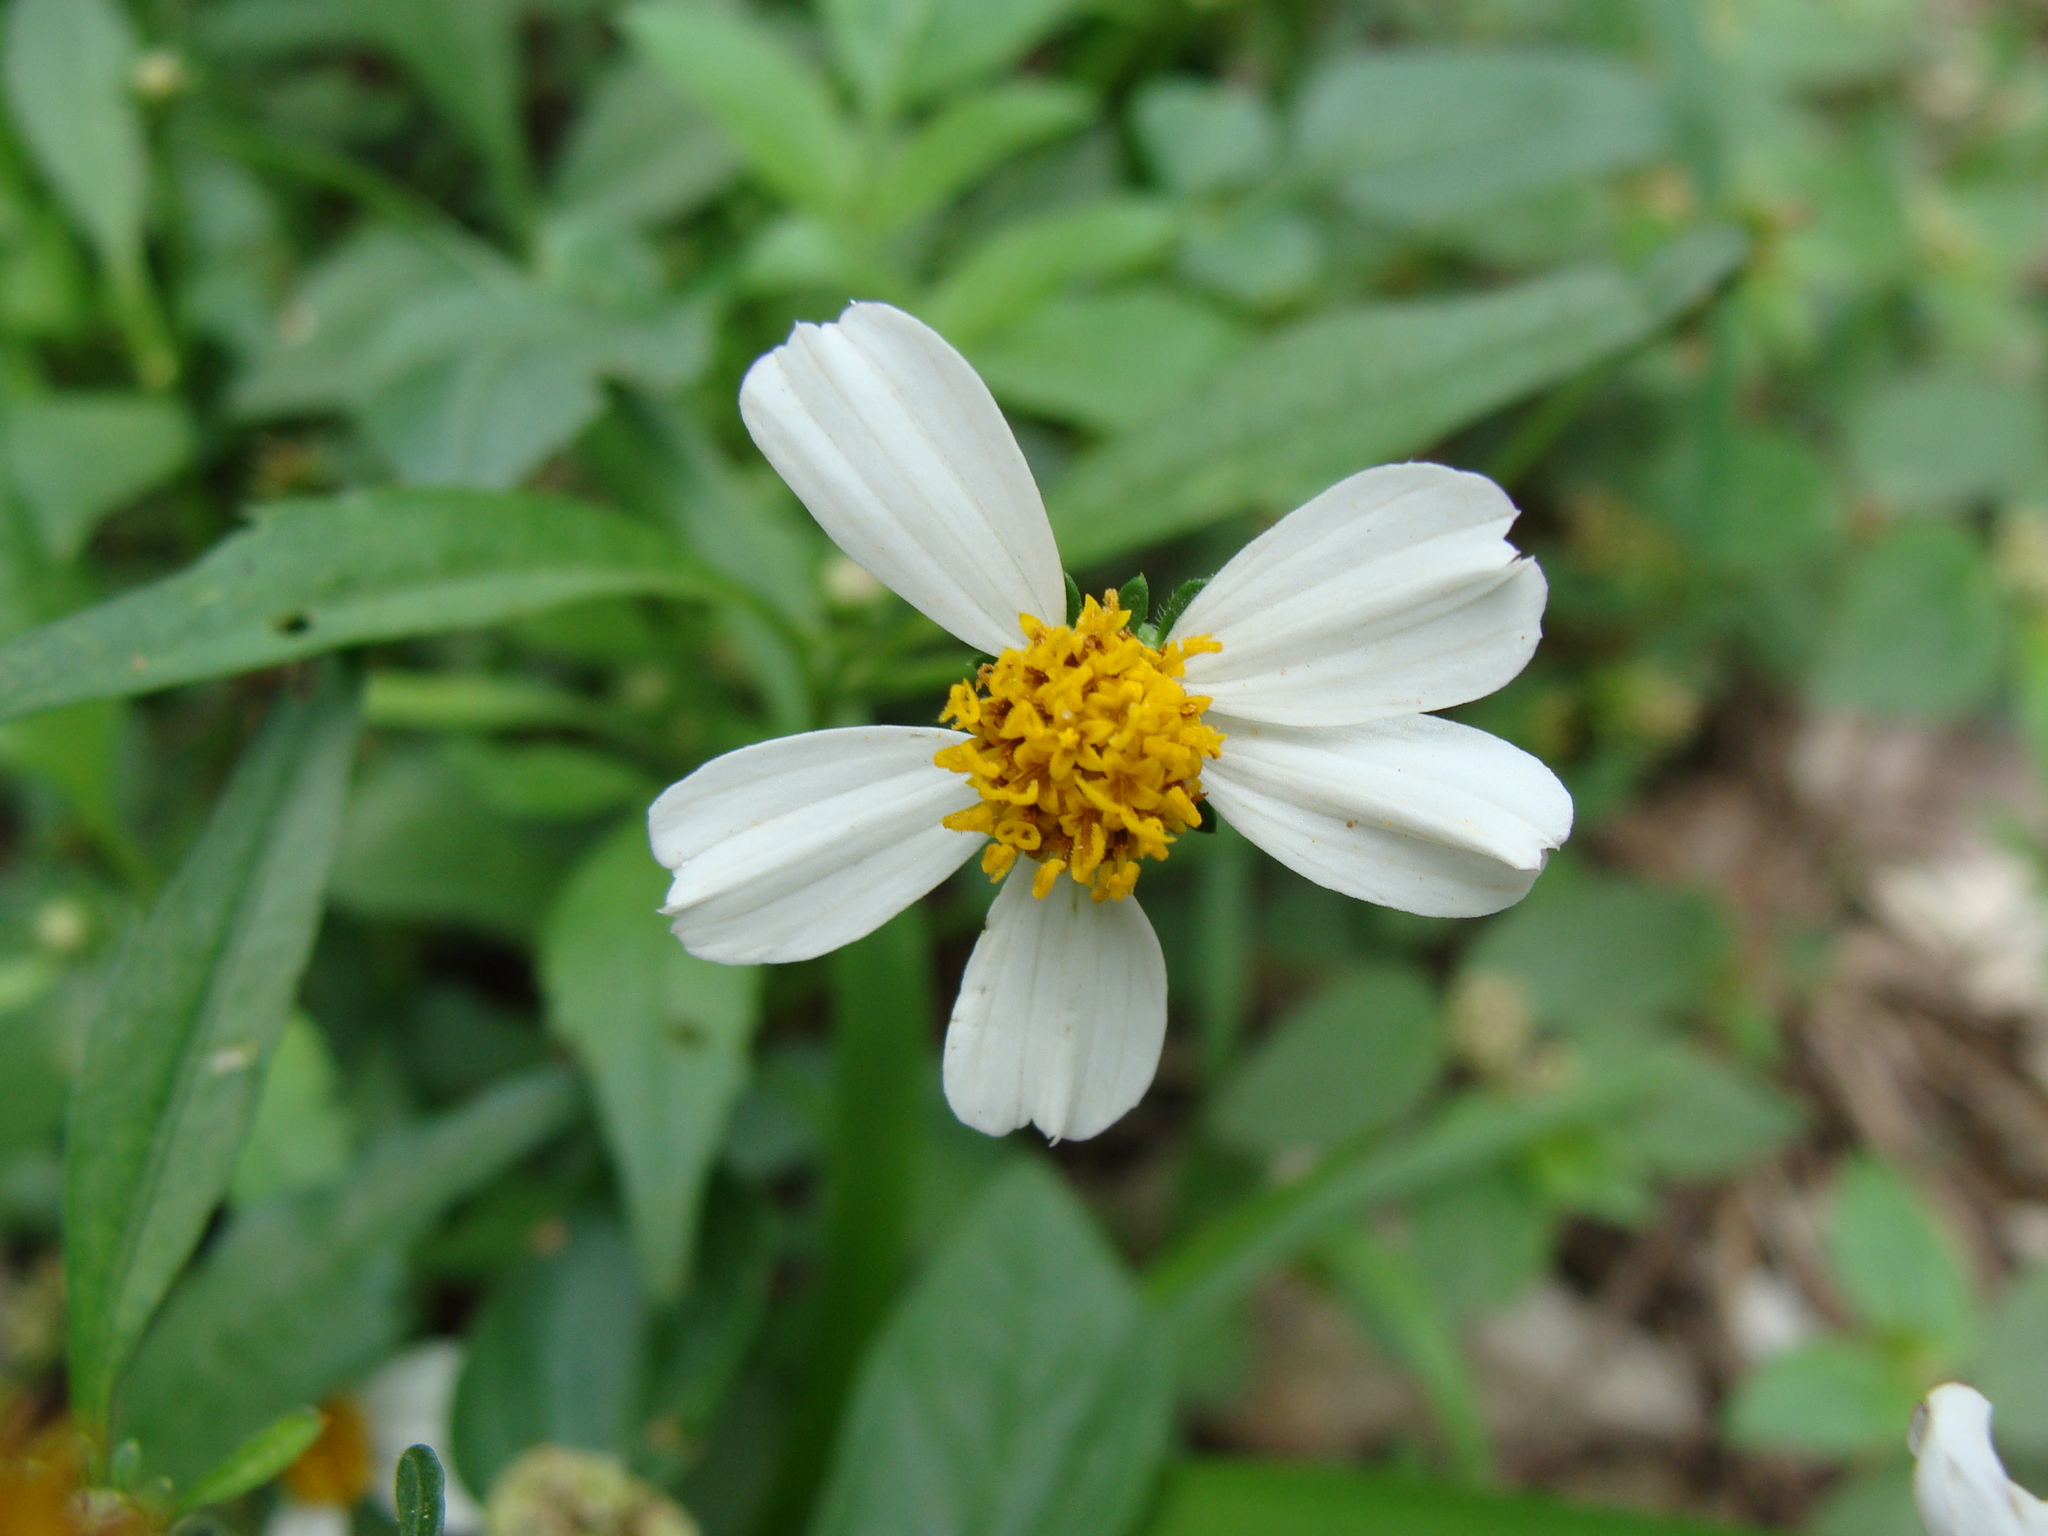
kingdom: Plantae
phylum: Tracheophyta
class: Magnoliopsida
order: Asterales
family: Asteraceae
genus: Bidens
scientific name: Bidens odorata
